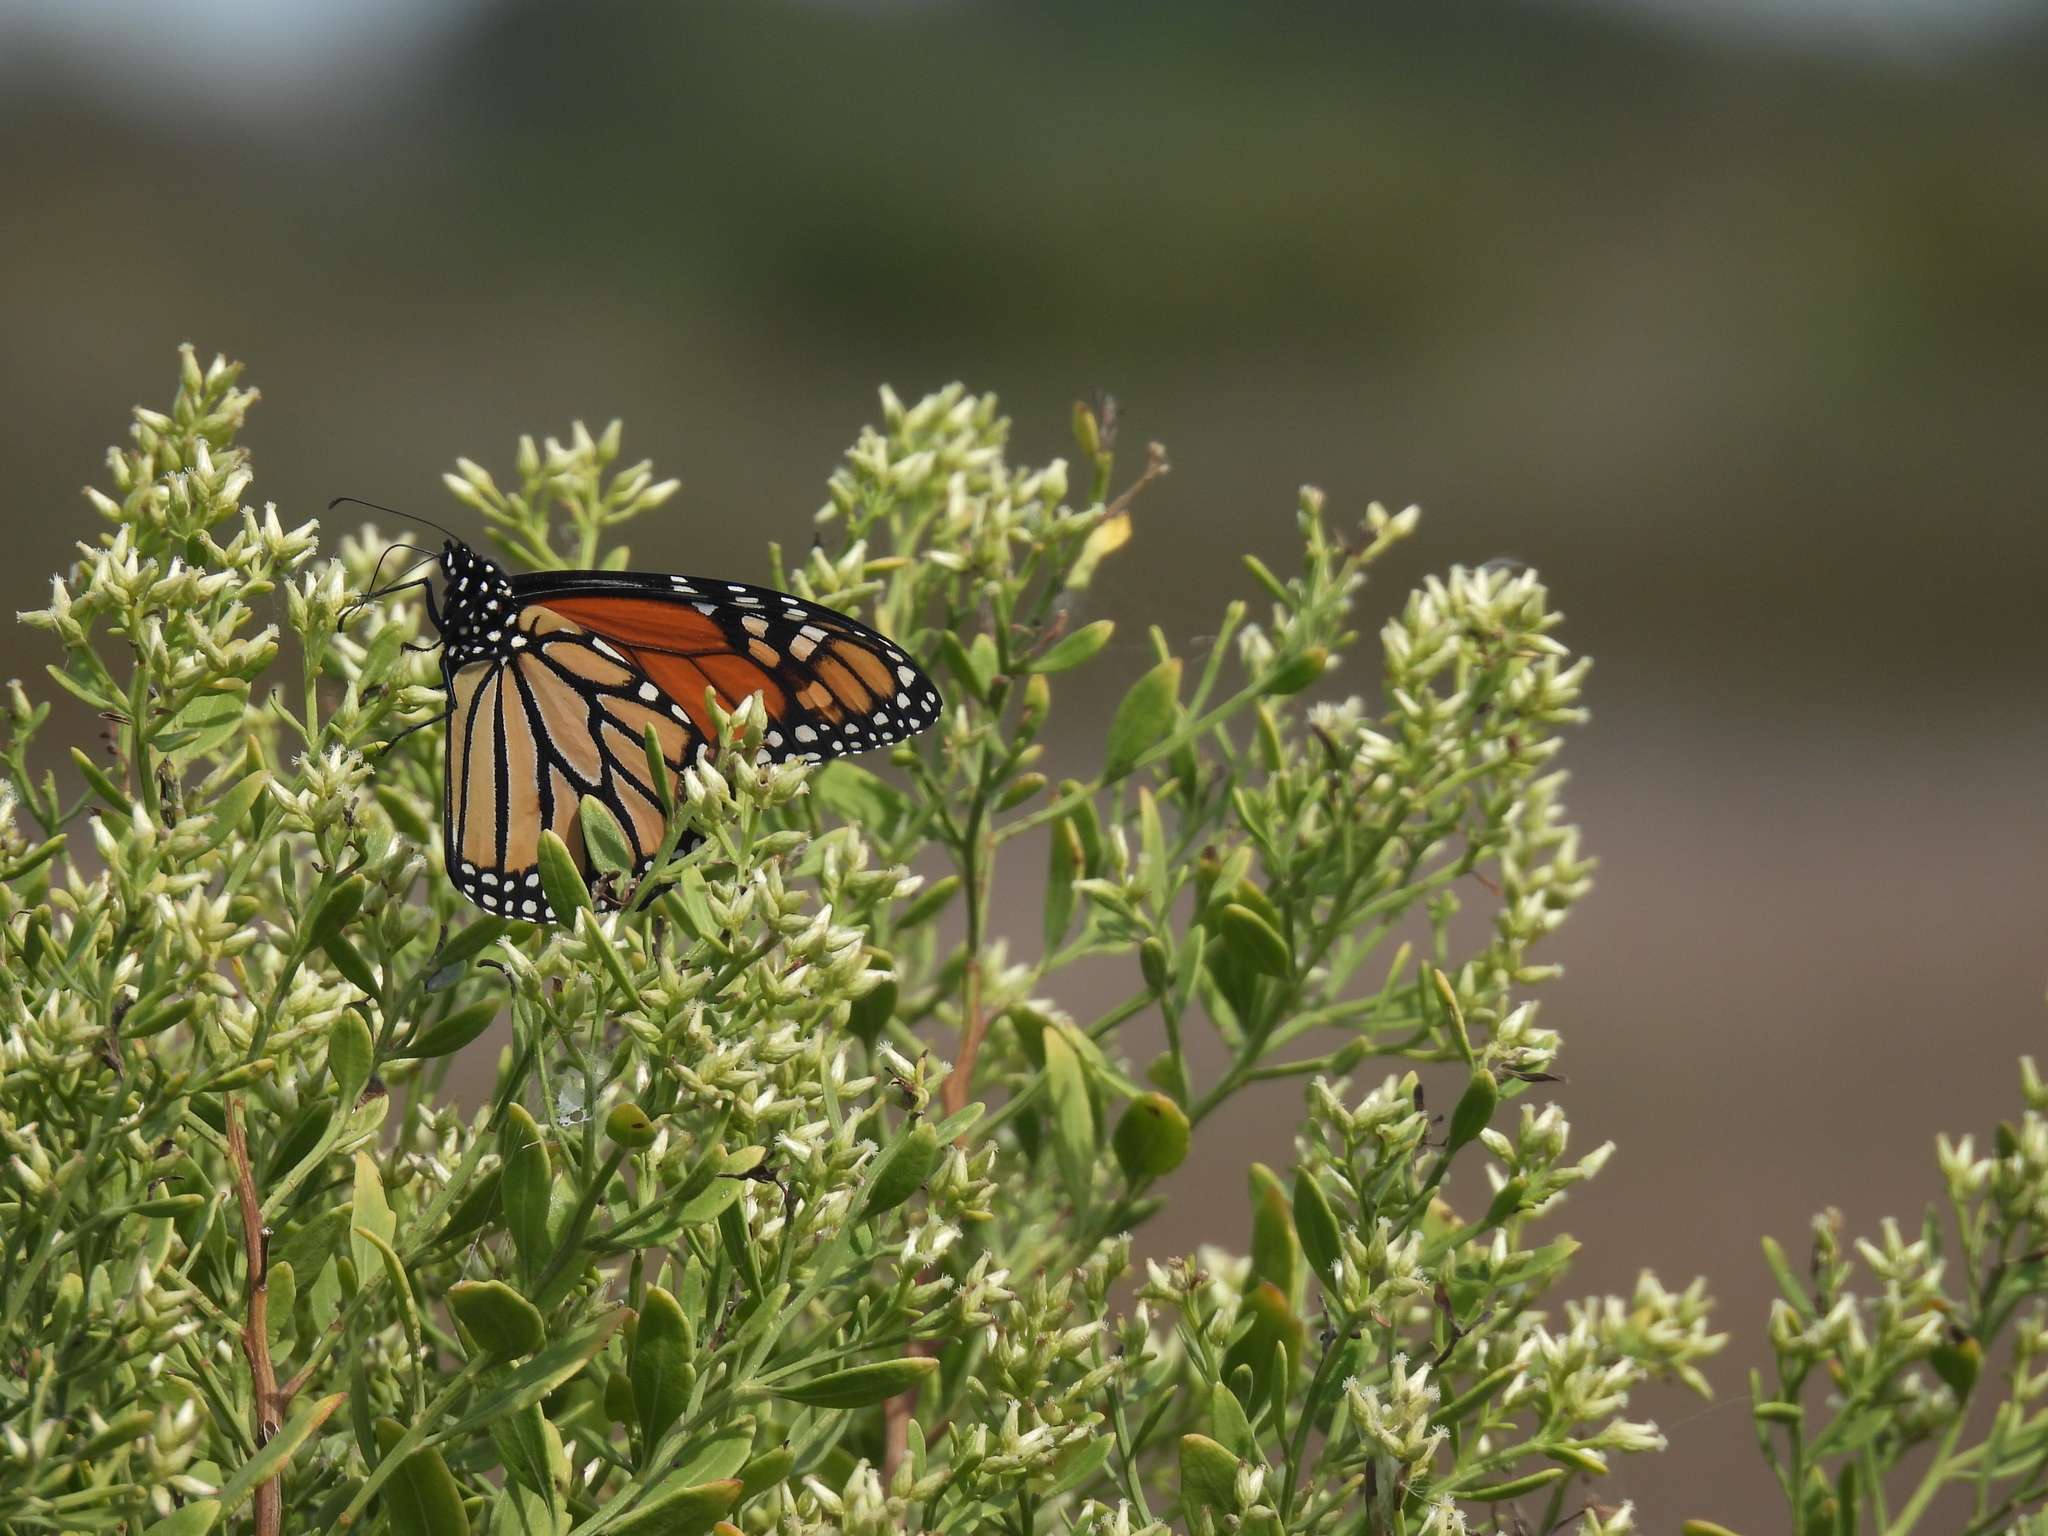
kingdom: Animalia
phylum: Arthropoda
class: Insecta
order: Lepidoptera
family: Nymphalidae
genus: Danaus
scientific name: Danaus plexippus
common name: Monarch
